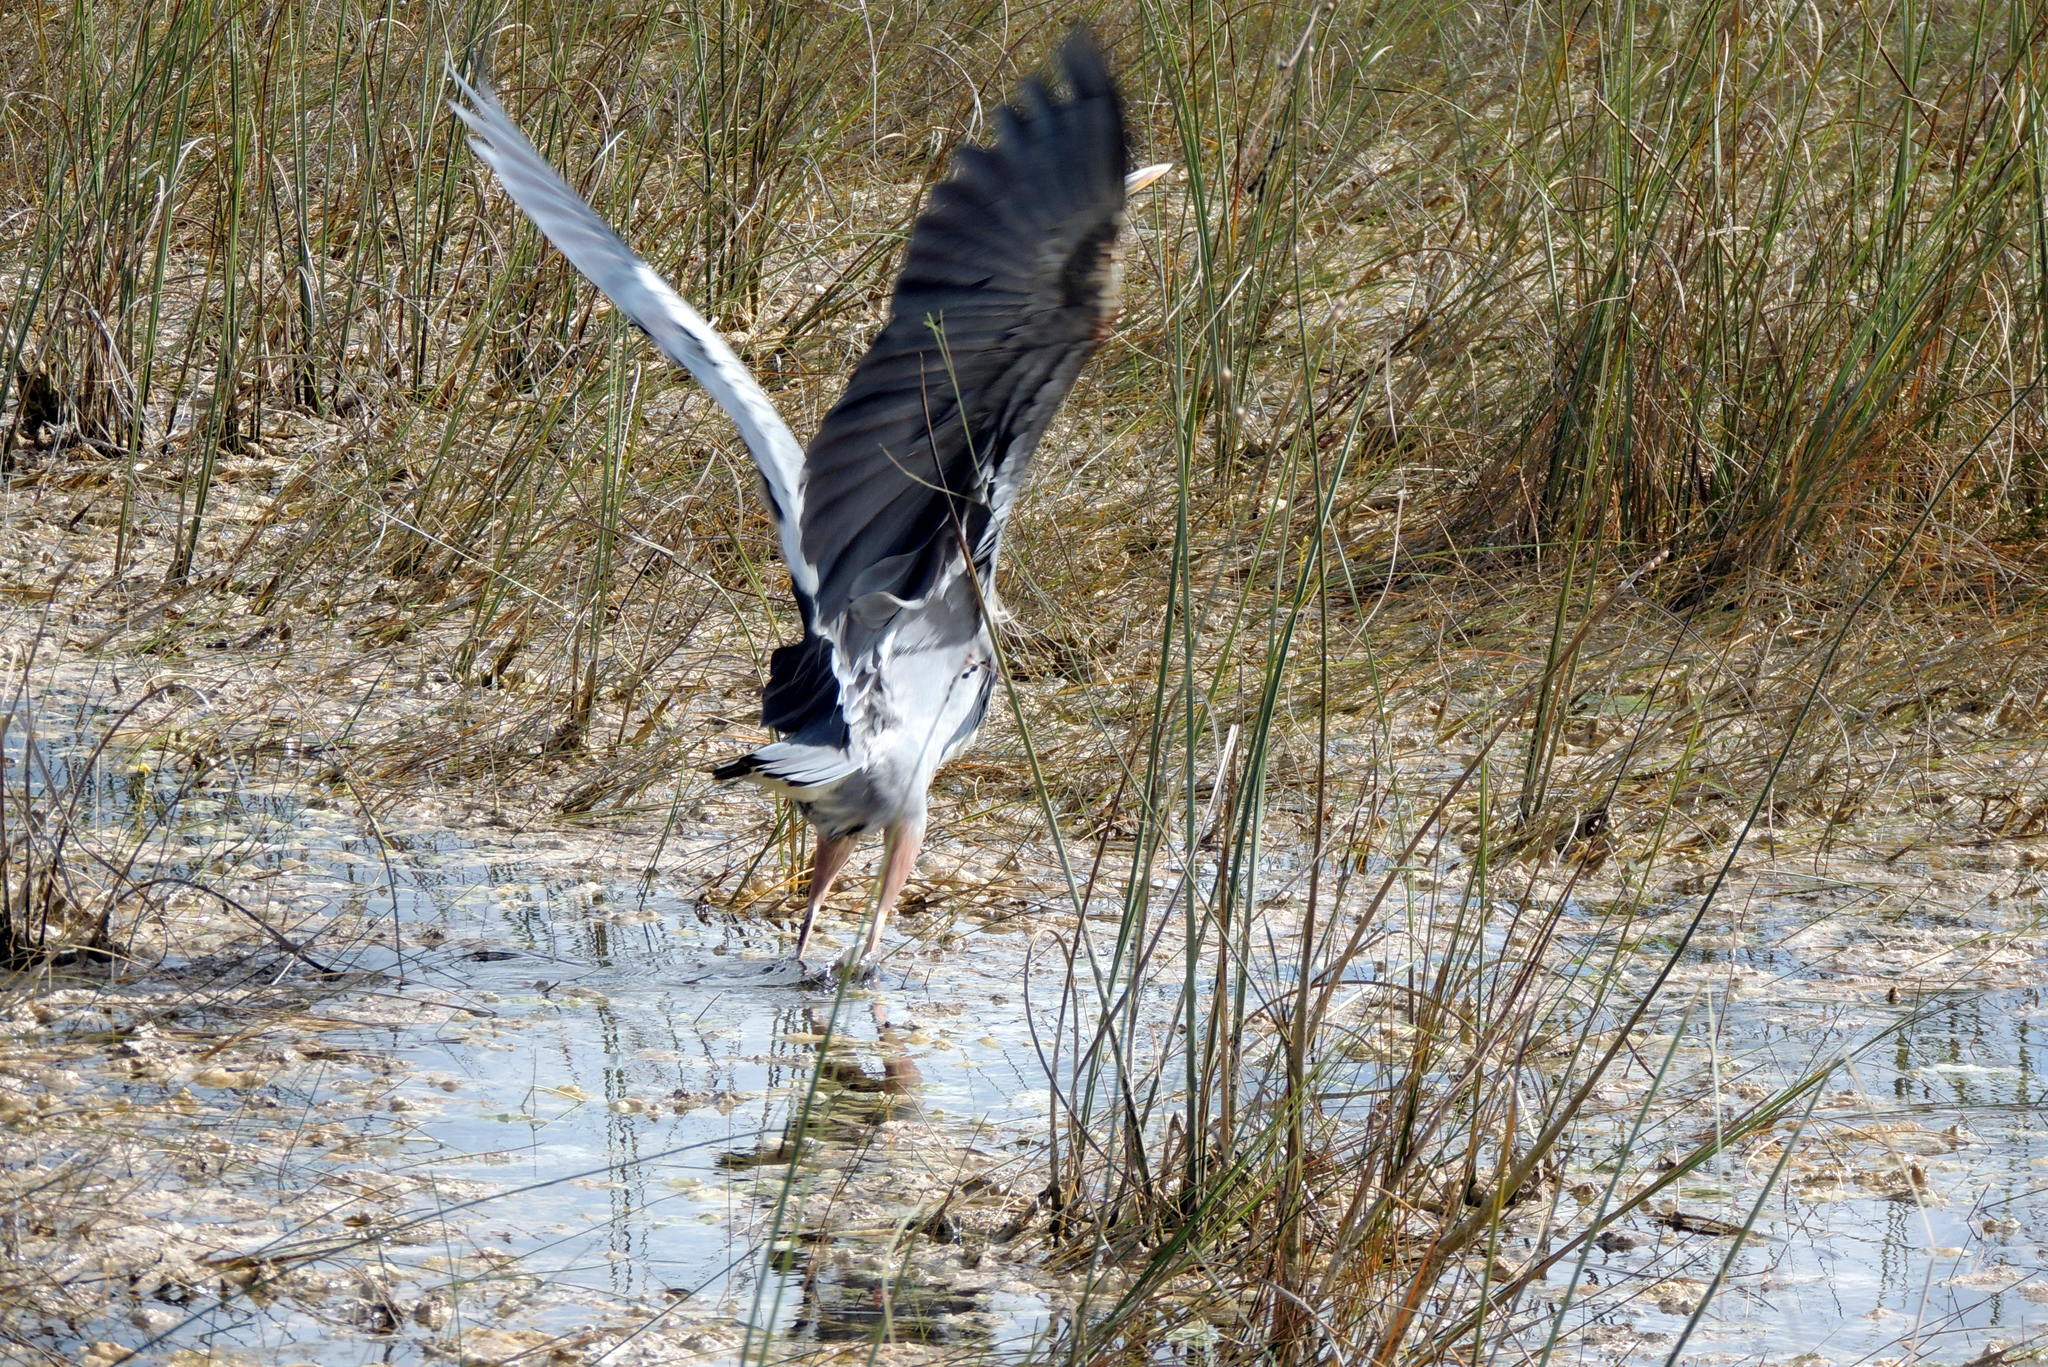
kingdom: Animalia
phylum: Chordata
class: Aves
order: Pelecaniformes
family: Ardeidae
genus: Ardea
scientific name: Ardea herodias
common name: Great blue heron
